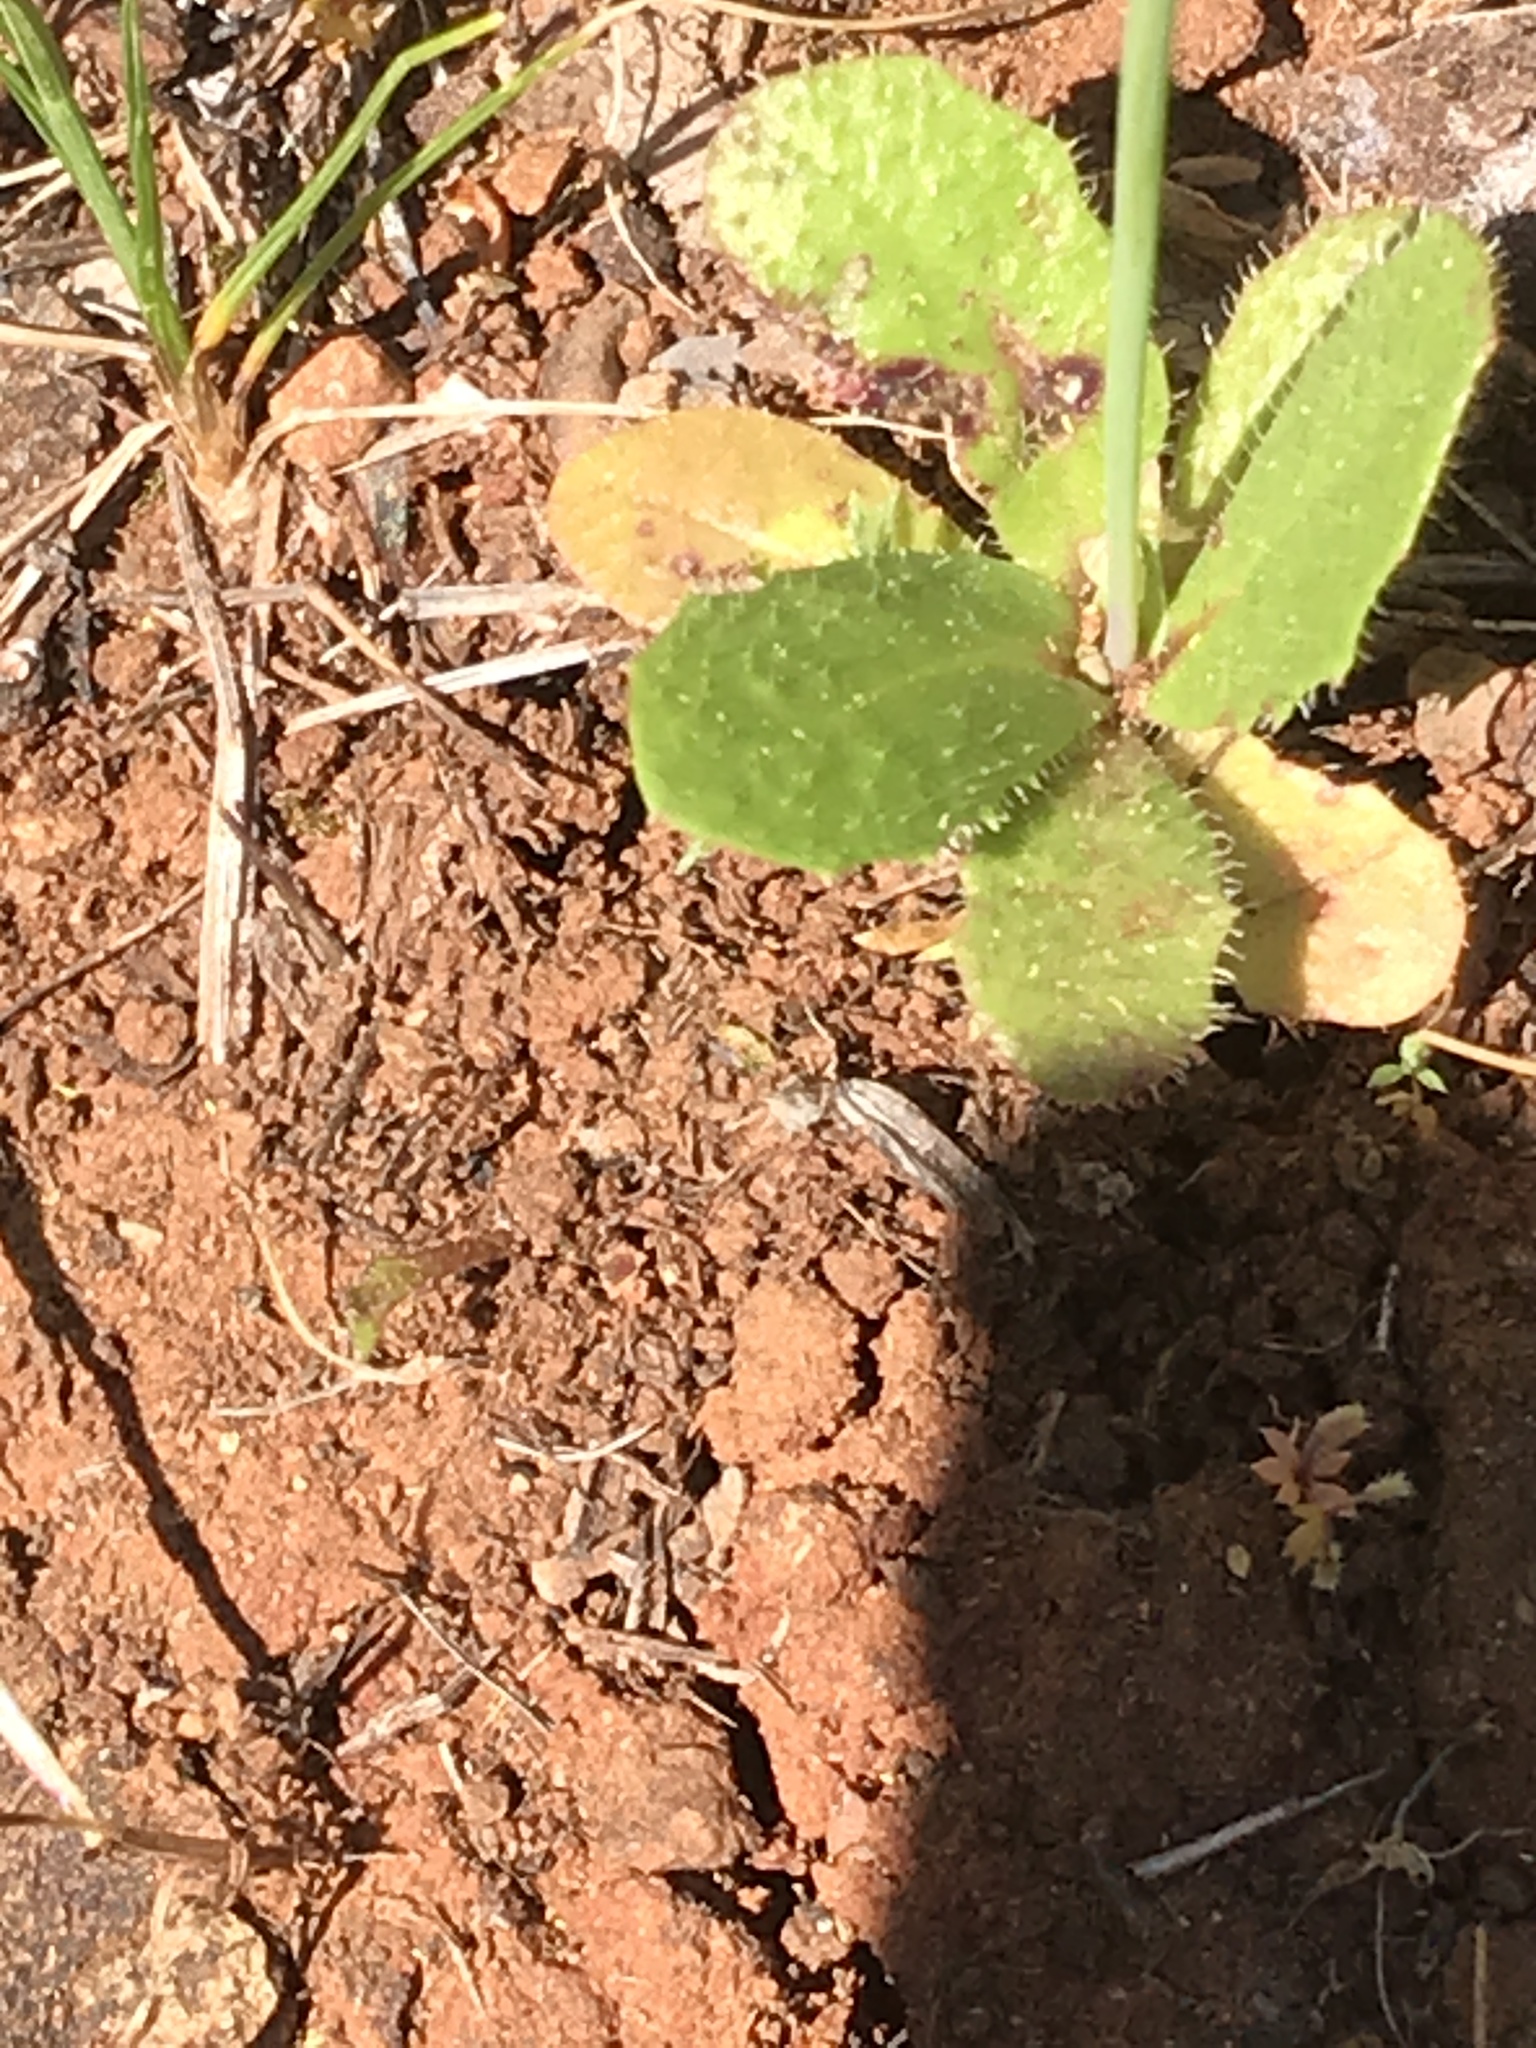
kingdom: Plantae
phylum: Tracheophyta
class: Magnoliopsida
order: Asterales
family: Asteraceae
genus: Hypochaeris
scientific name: Hypochaeris glabra
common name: Smooth catsear
